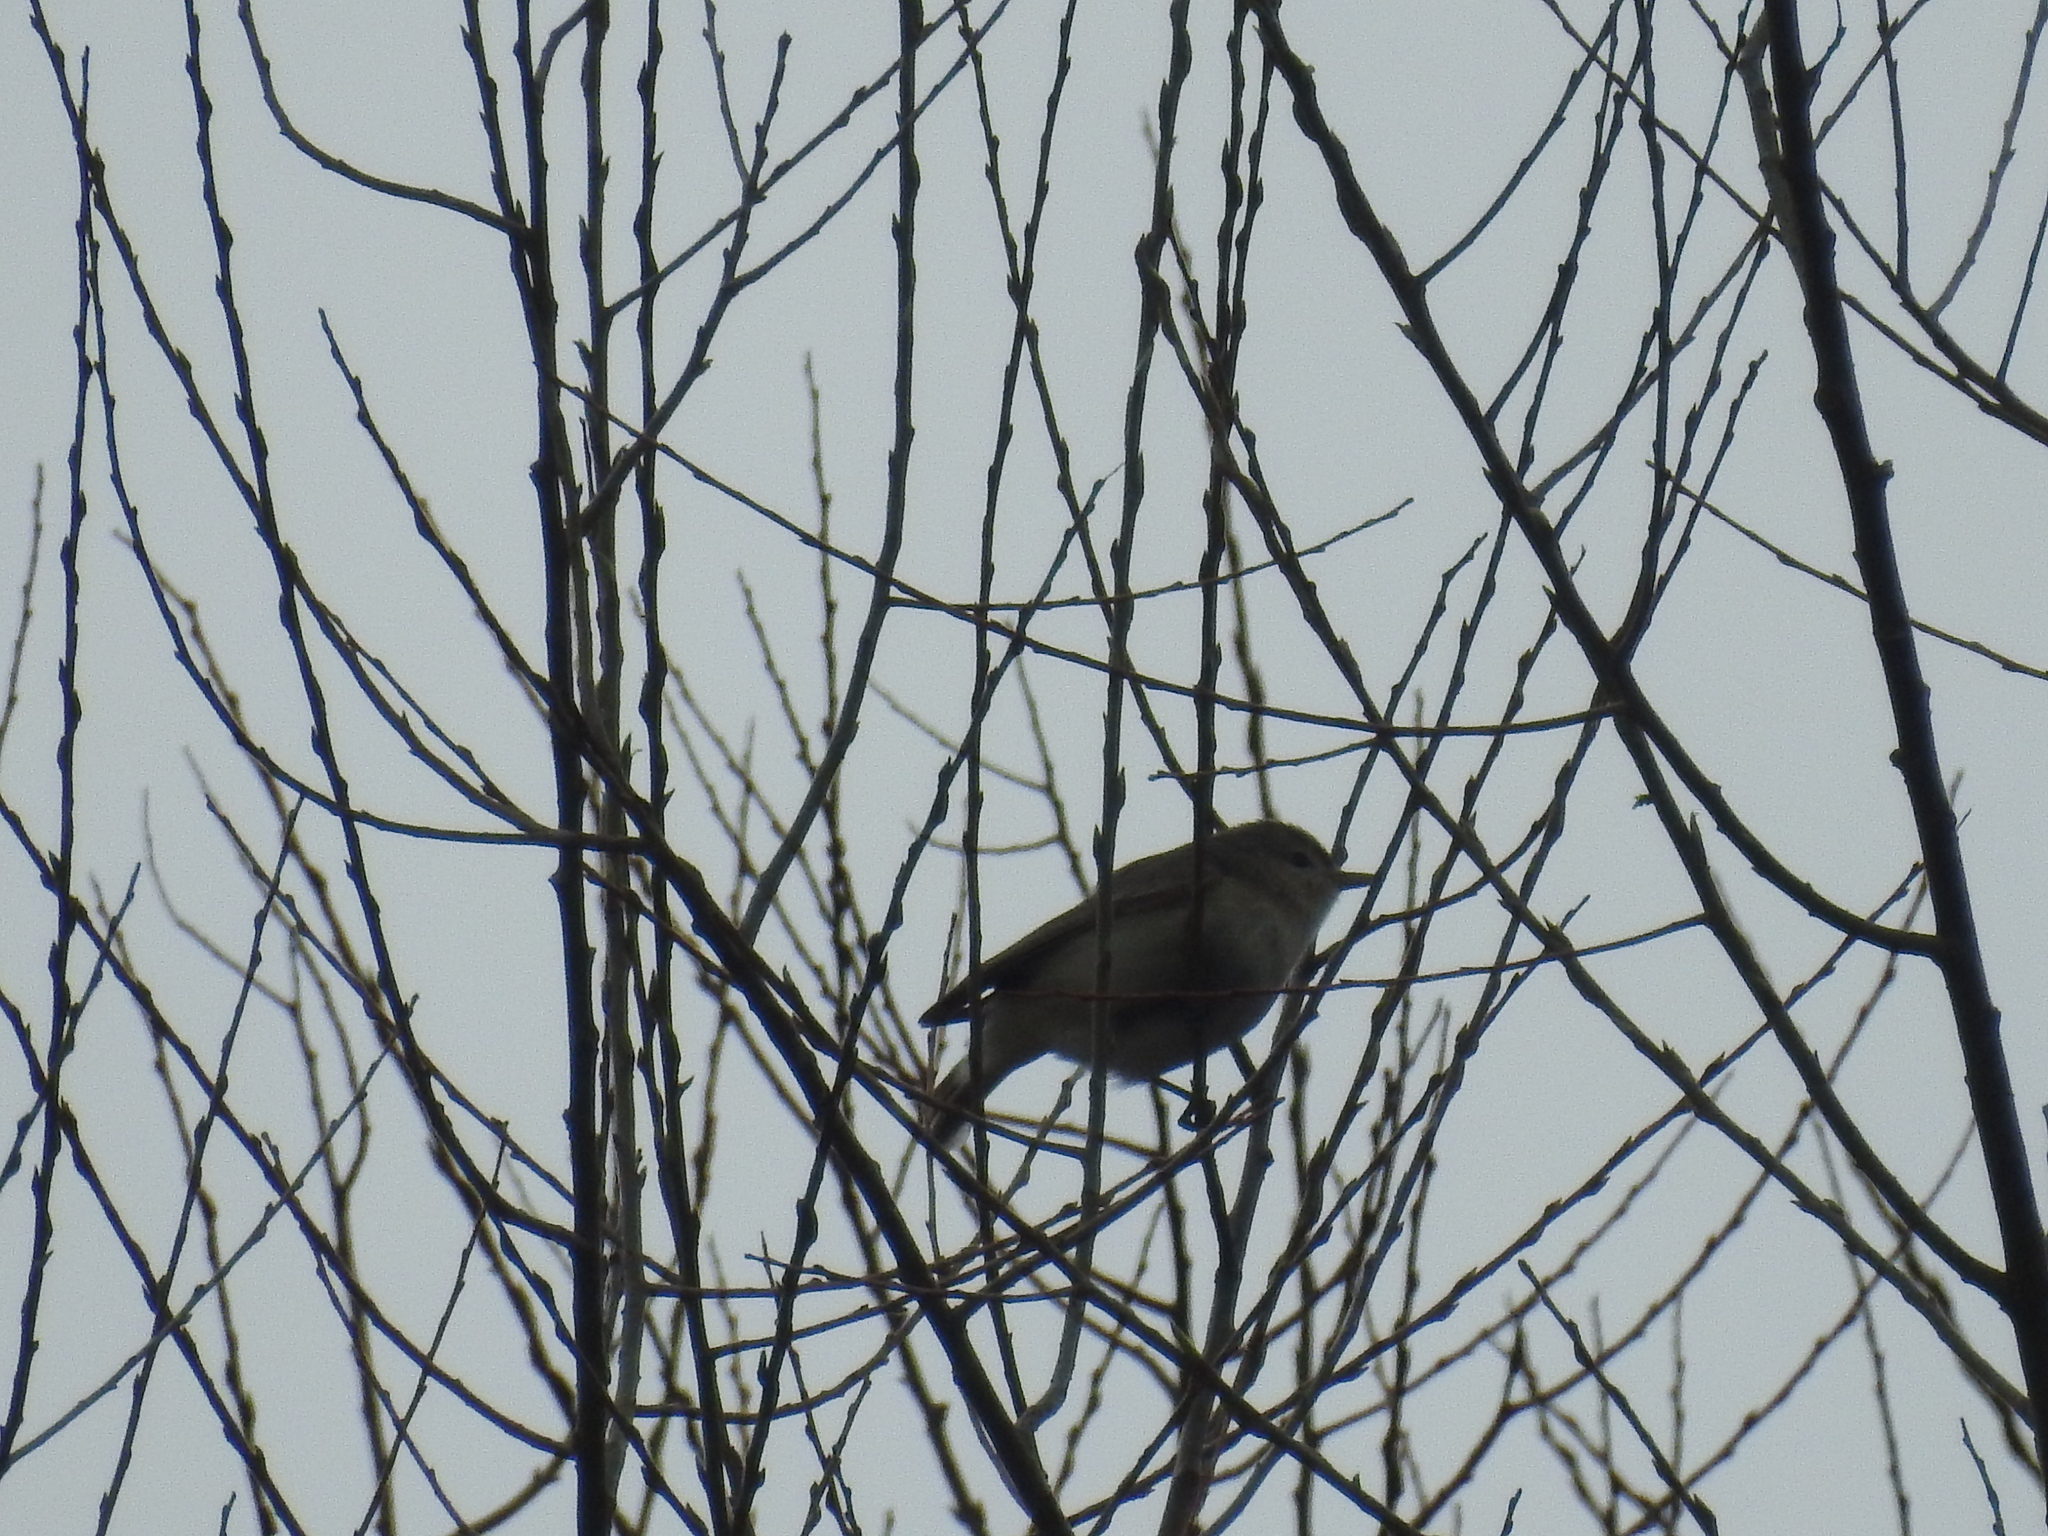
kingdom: Animalia
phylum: Chordata
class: Aves
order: Passeriformes
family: Vireonidae
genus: Vireo
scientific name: Vireo gilvus
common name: Warbling vireo
